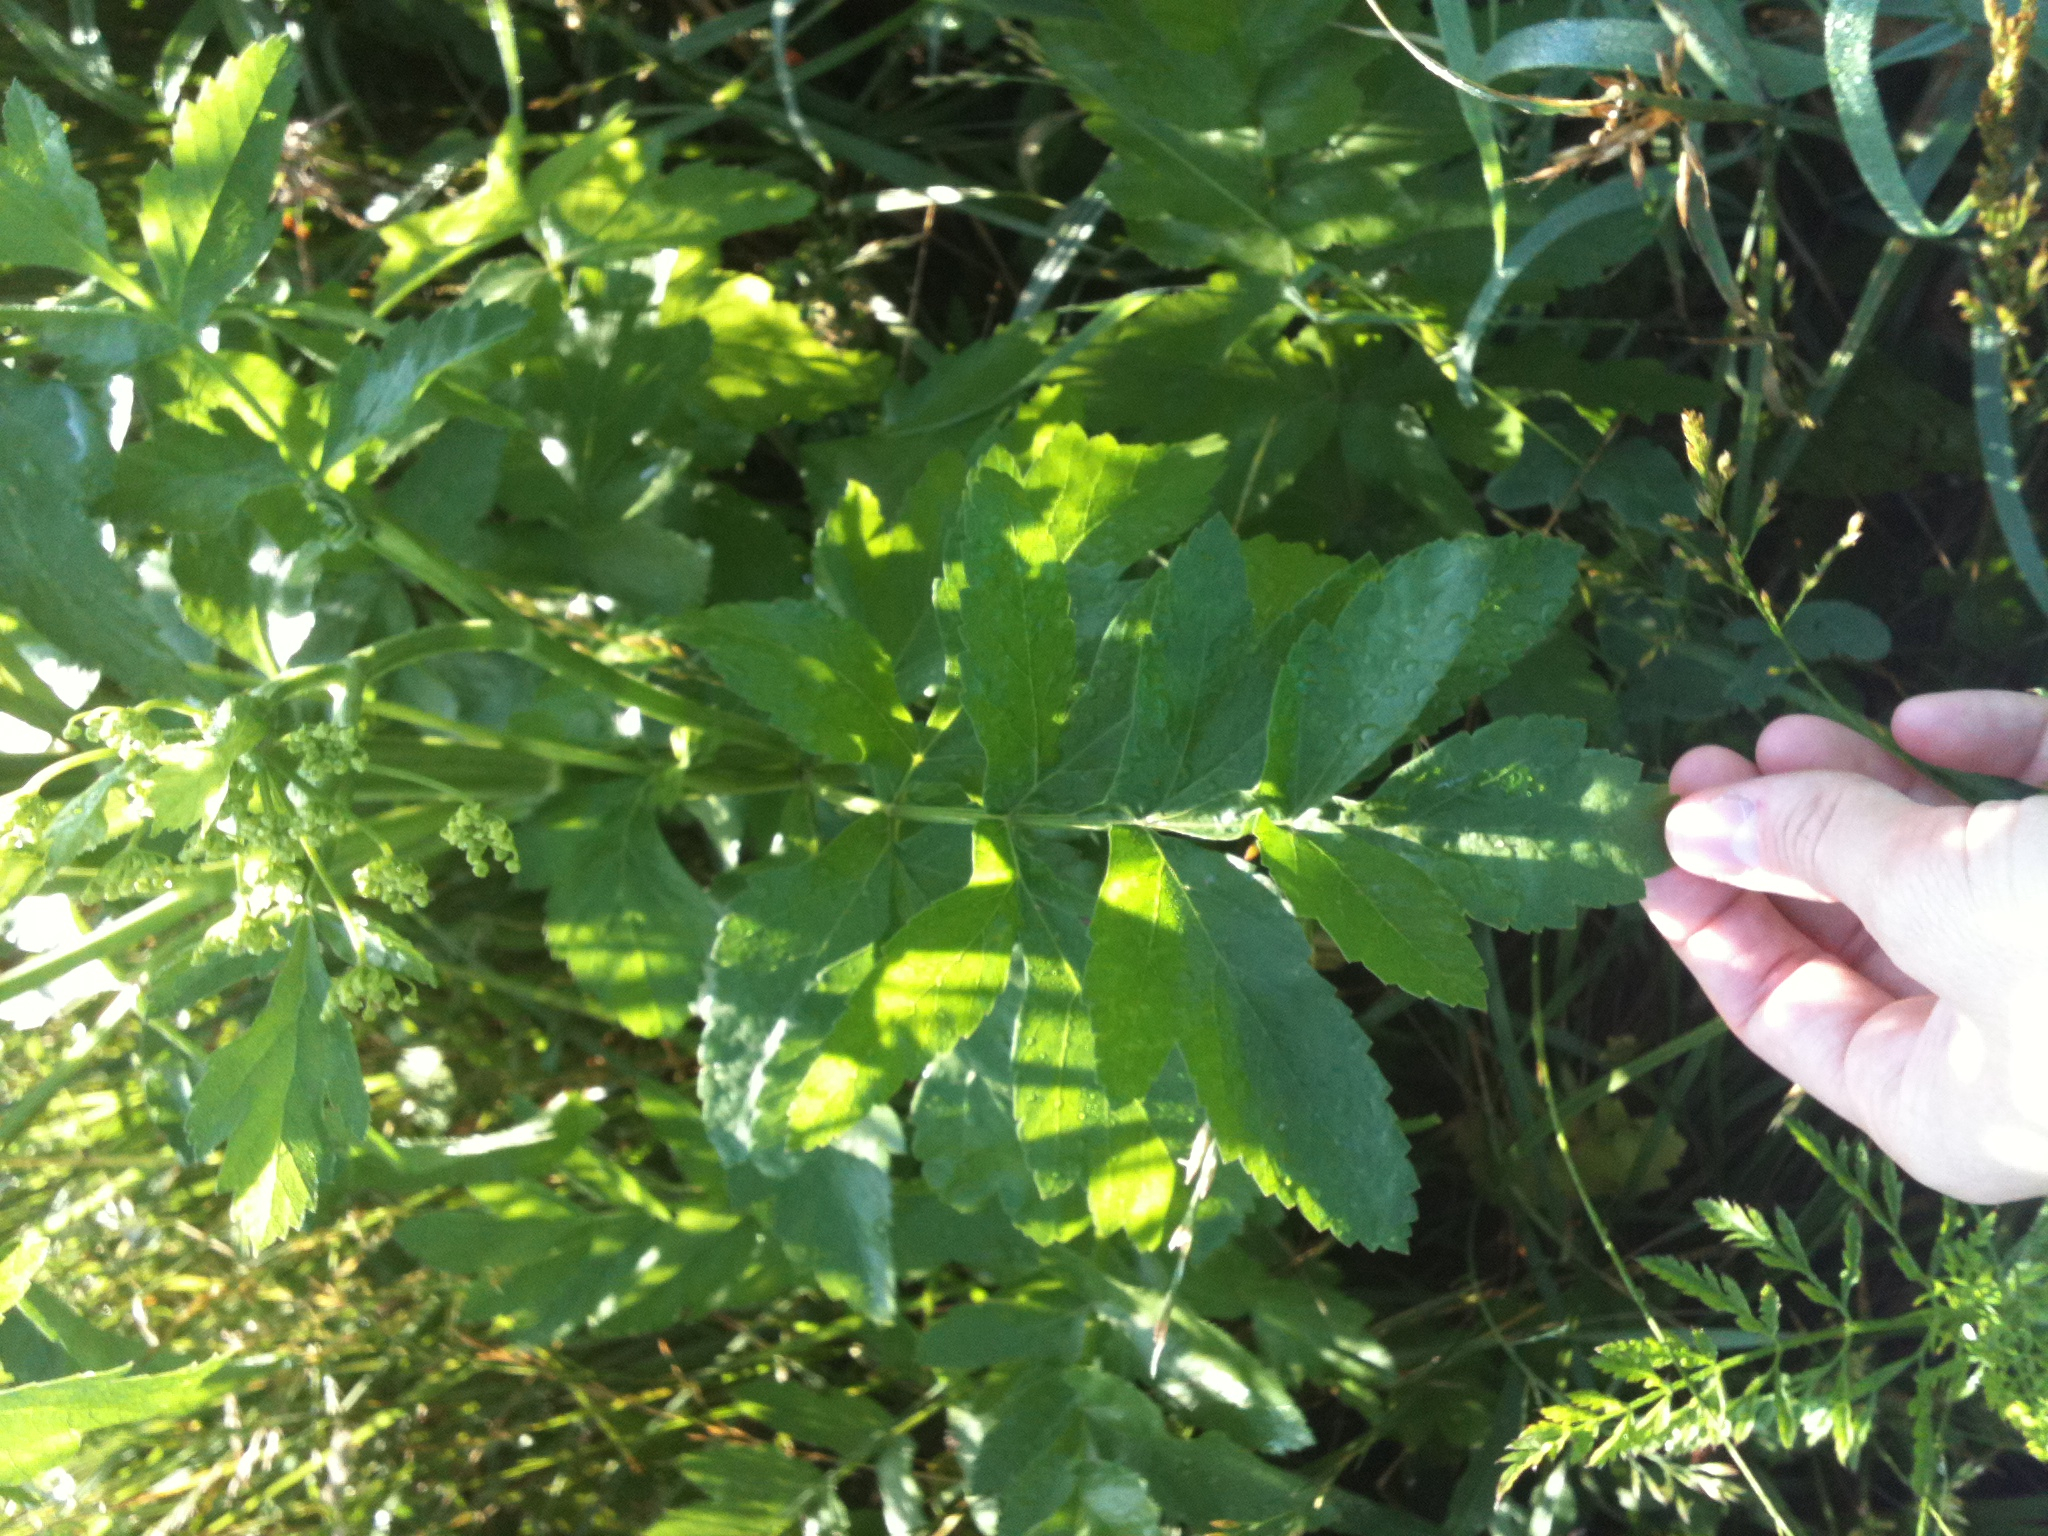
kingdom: Plantae
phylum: Tracheophyta
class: Magnoliopsida
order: Apiales
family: Apiaceae
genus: Pastinaca
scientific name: Pastinaca sativa
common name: Wild parsnip
